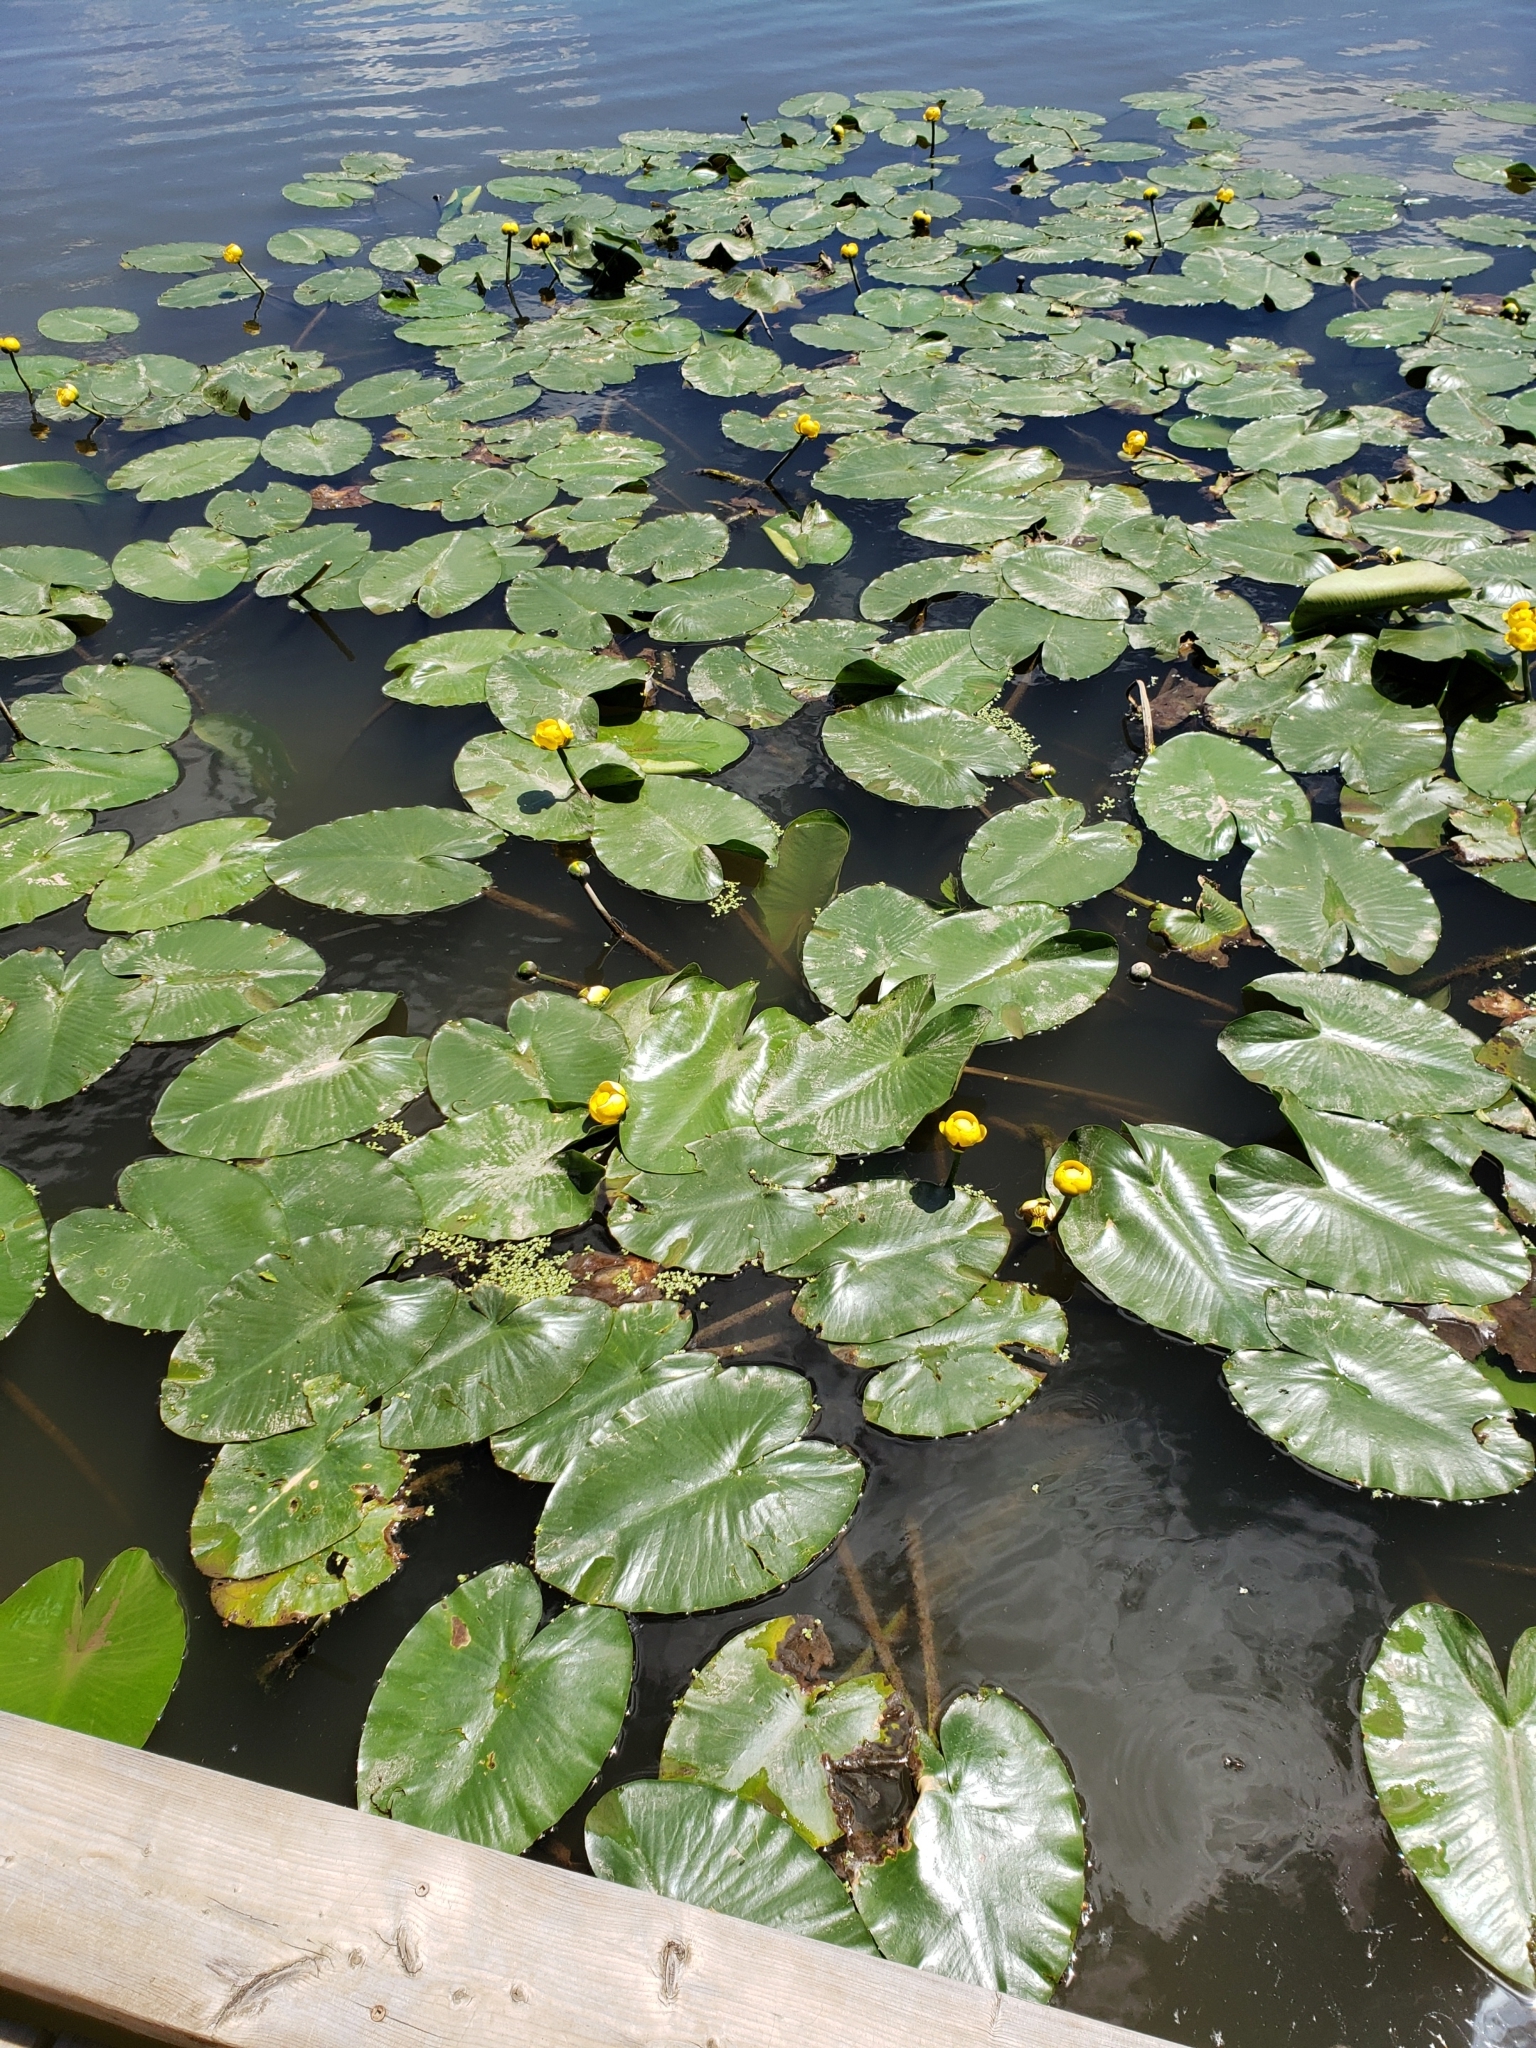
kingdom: Plantae
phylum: Tracheophyta
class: Magnoliopsida
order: Nymphaeales
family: Nymphaeaceae
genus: Nuphar
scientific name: Nuphar variegata
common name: Beaver-root
